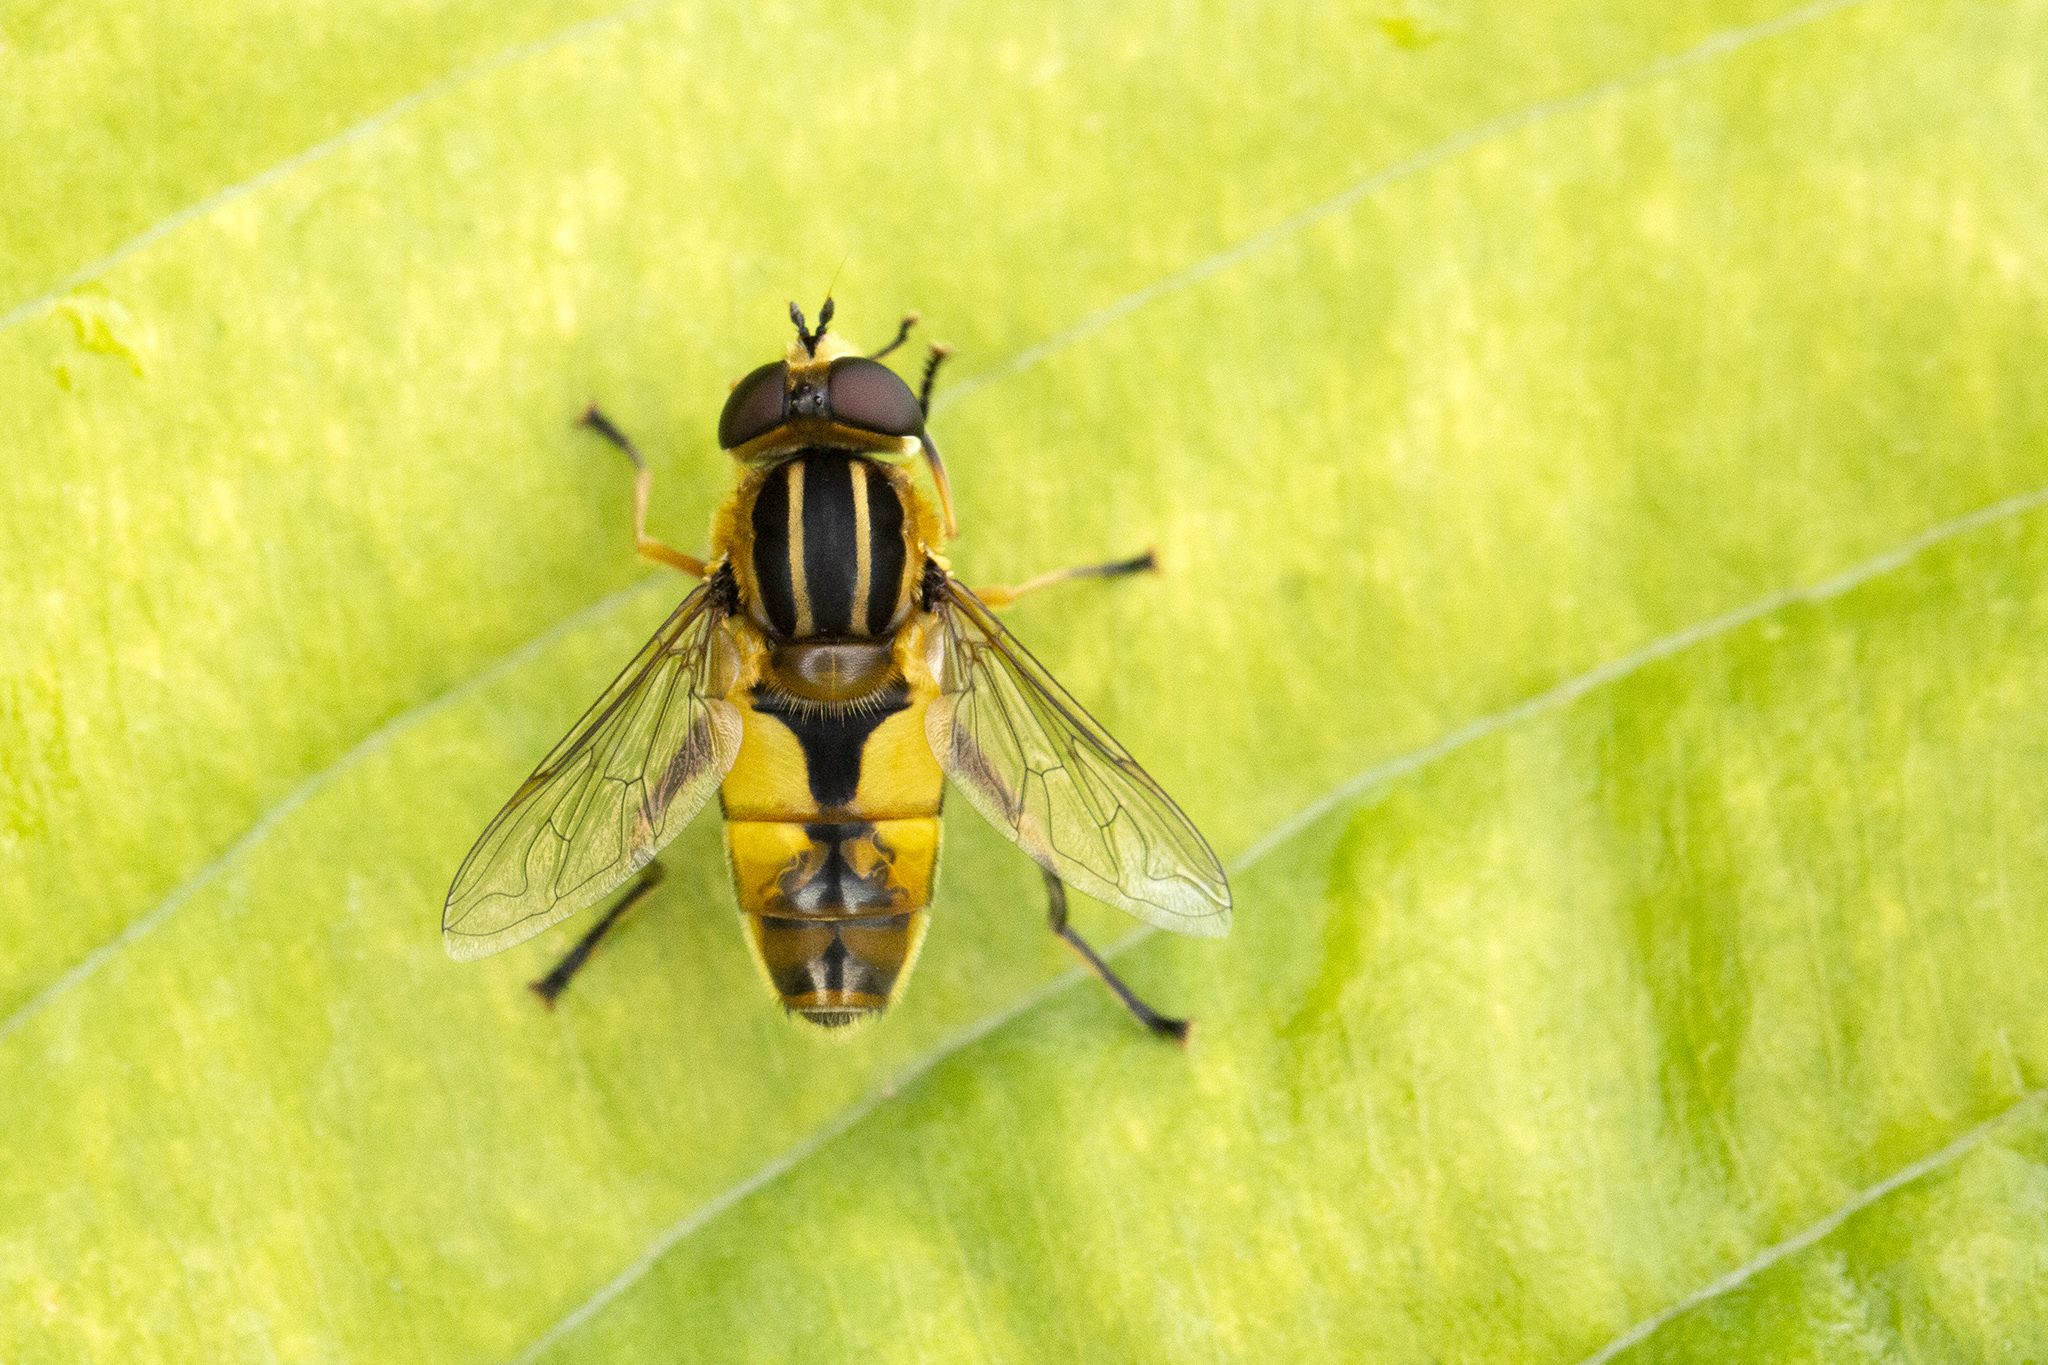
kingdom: Animalia
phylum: Arthropoda
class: Insecta
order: Diptera
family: Syrphidae
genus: Helophilus
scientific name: Helophilus hybridus
